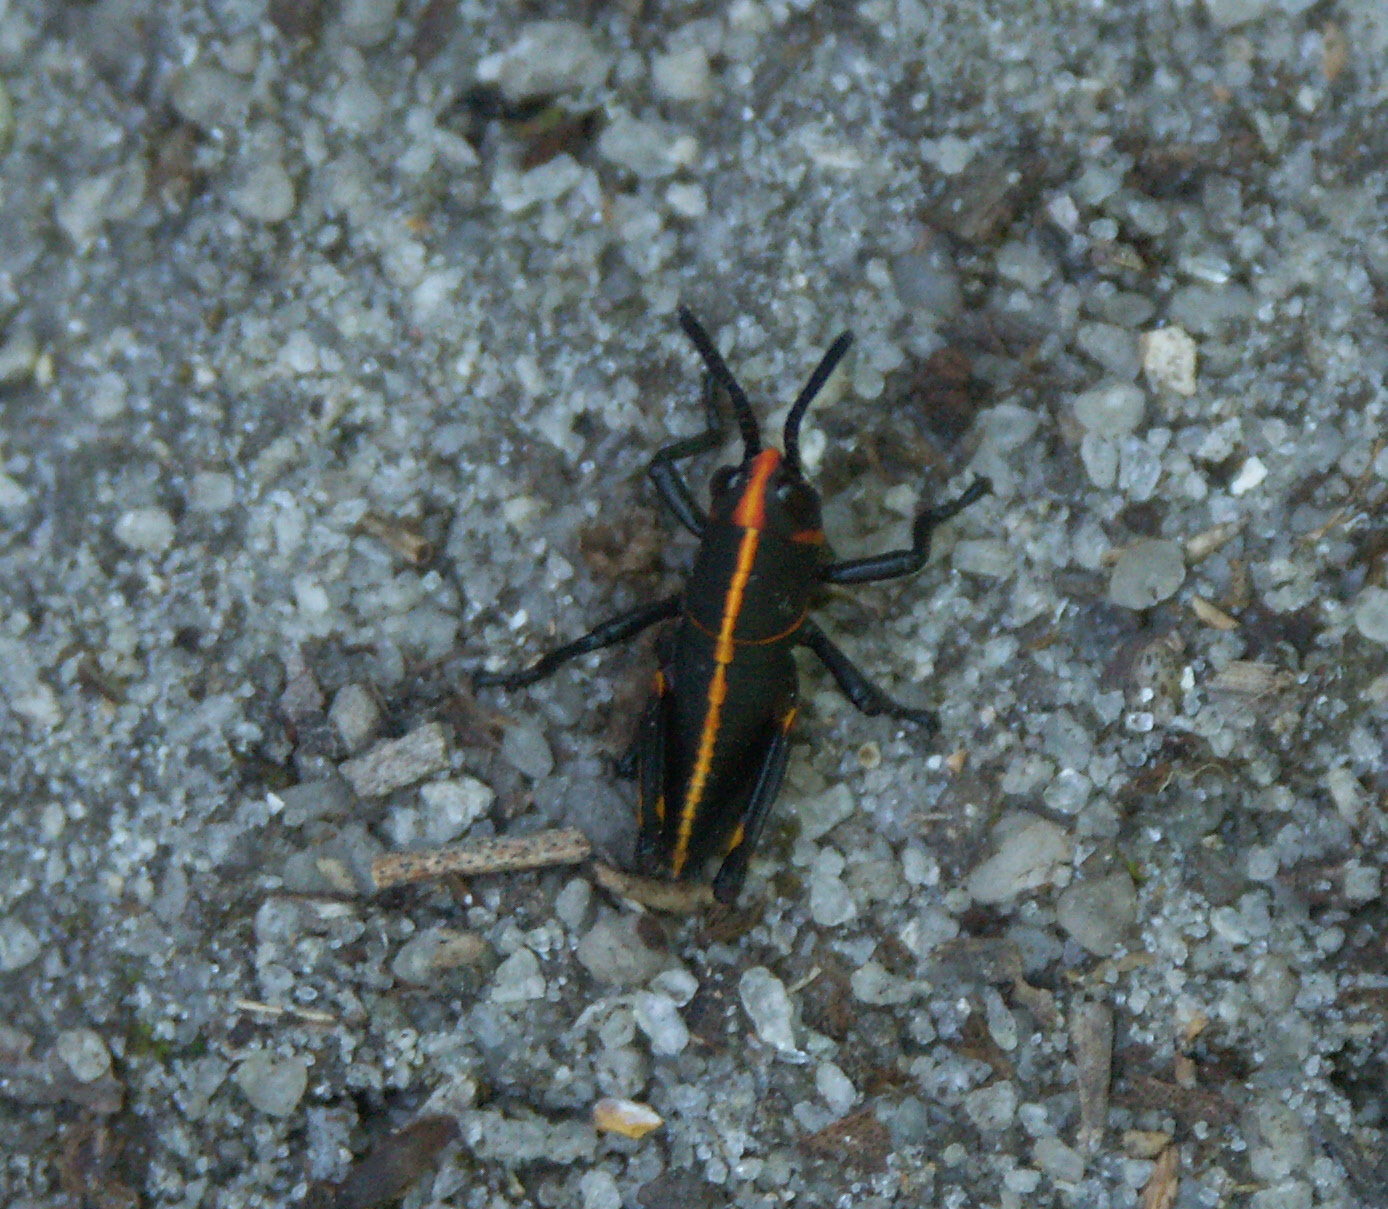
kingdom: Animalia
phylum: Arthropoda
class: Insecta
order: Orthoptera
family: Romaleidae
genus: Romalea
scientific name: Romalea microptera
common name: Eastern lubber grasshopper
